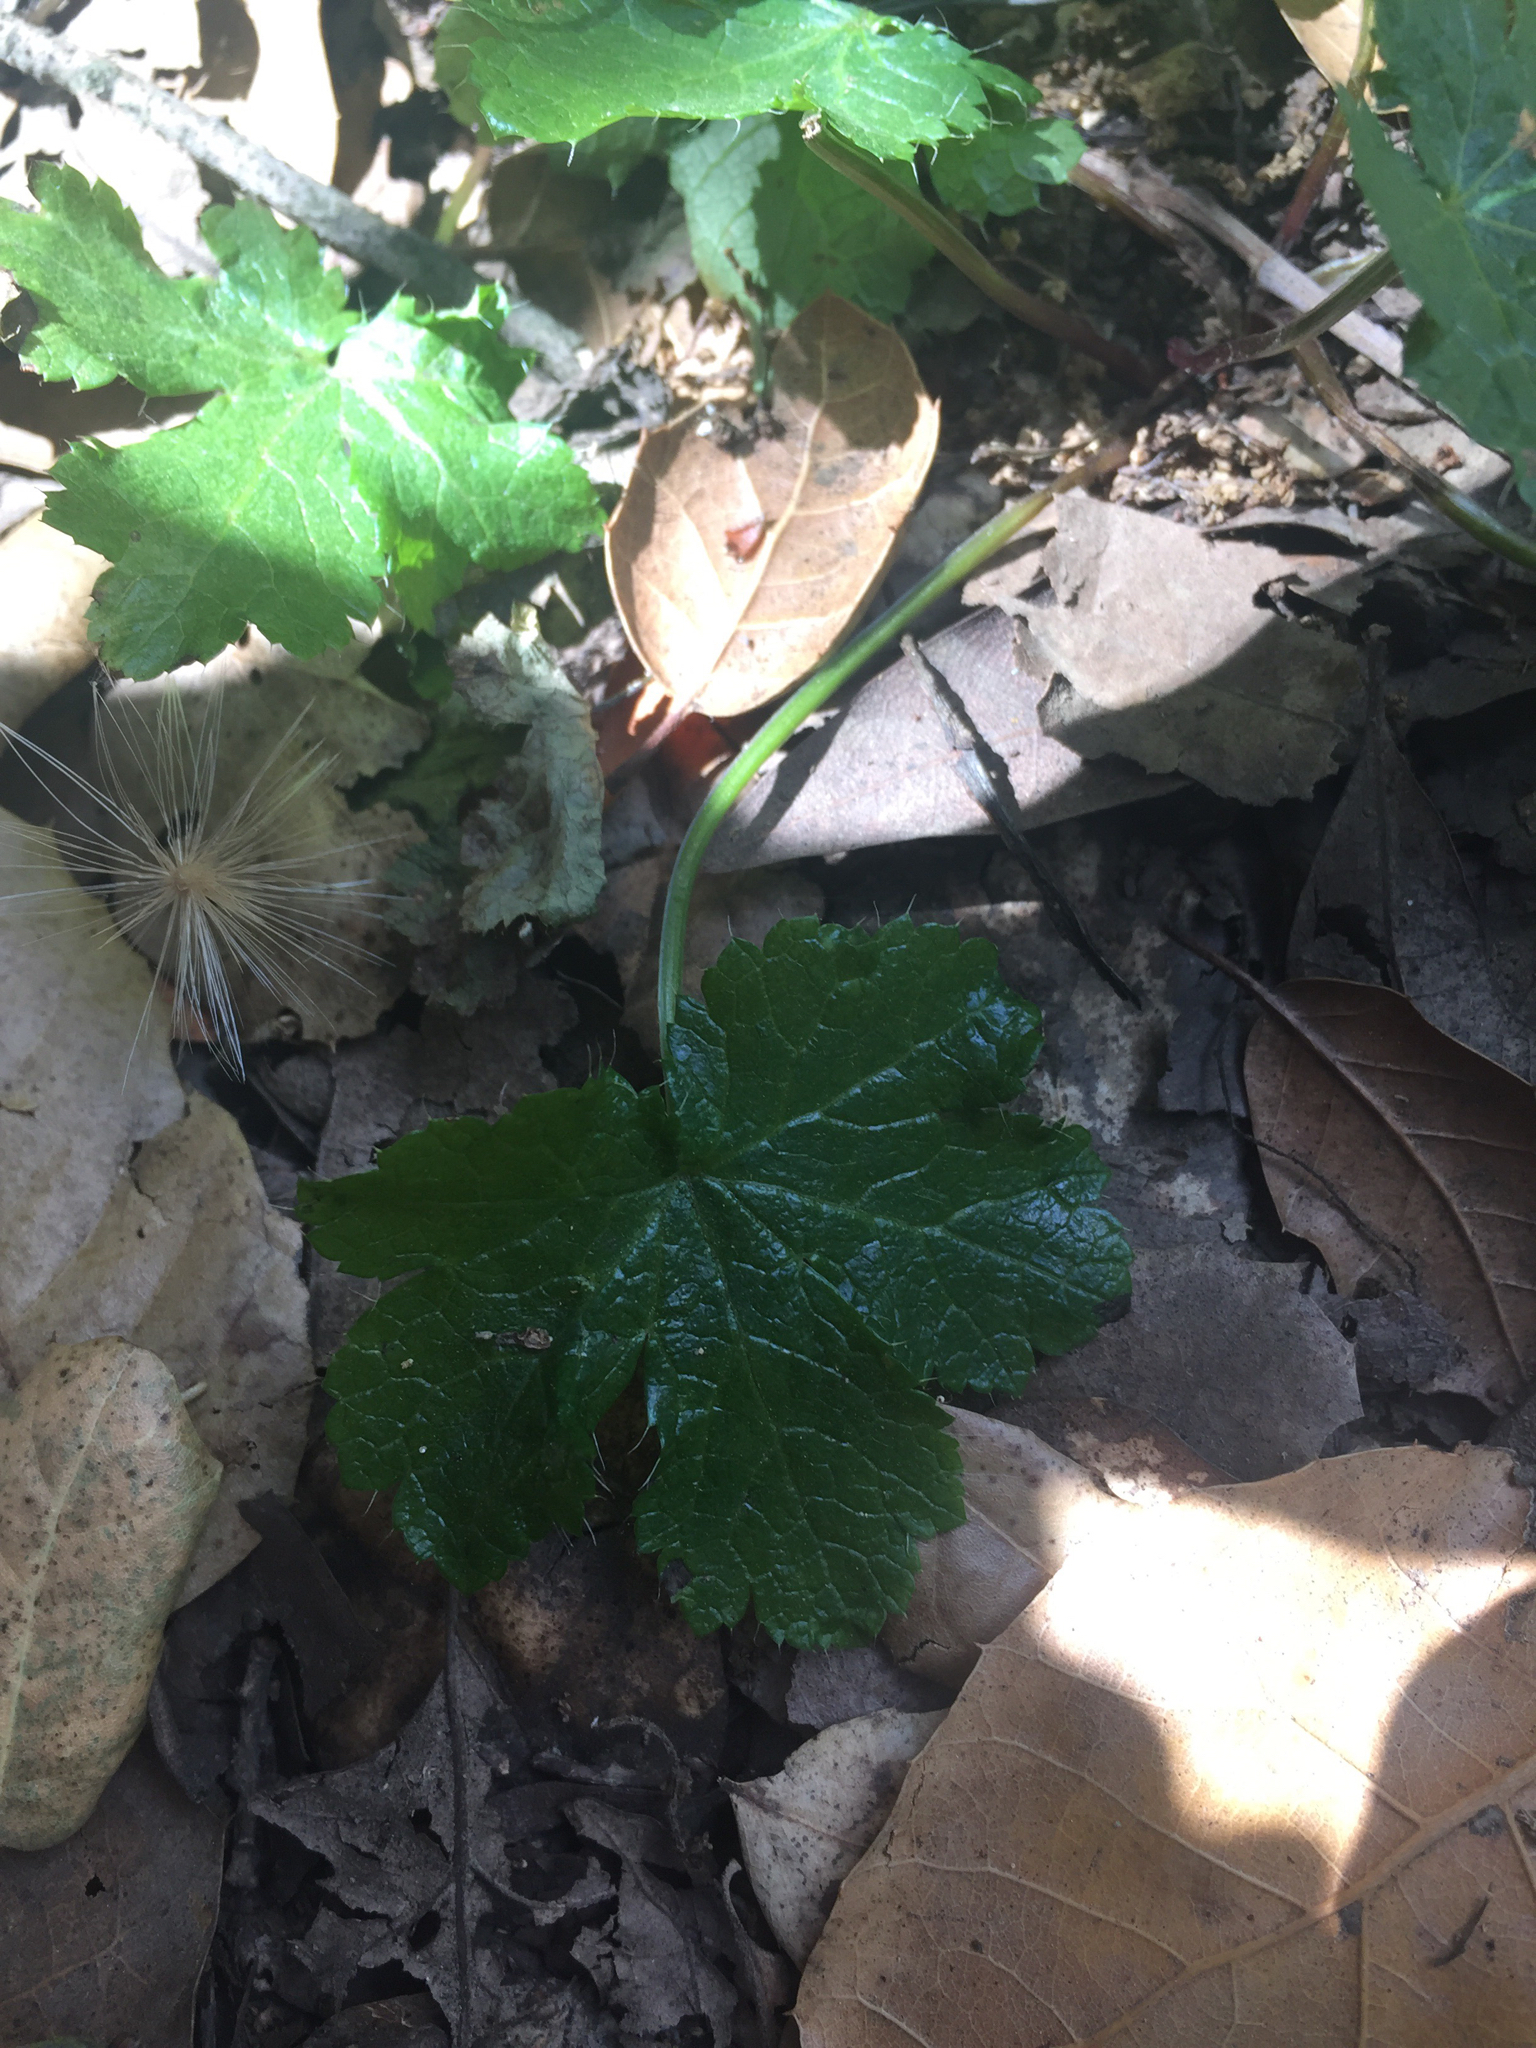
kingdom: Plantae
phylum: Tracheophyta
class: Magnoliopsida
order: Apiales
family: Apiaceae
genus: Sanicula
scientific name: Sanicula crassicaulis
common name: Western snakeroot
